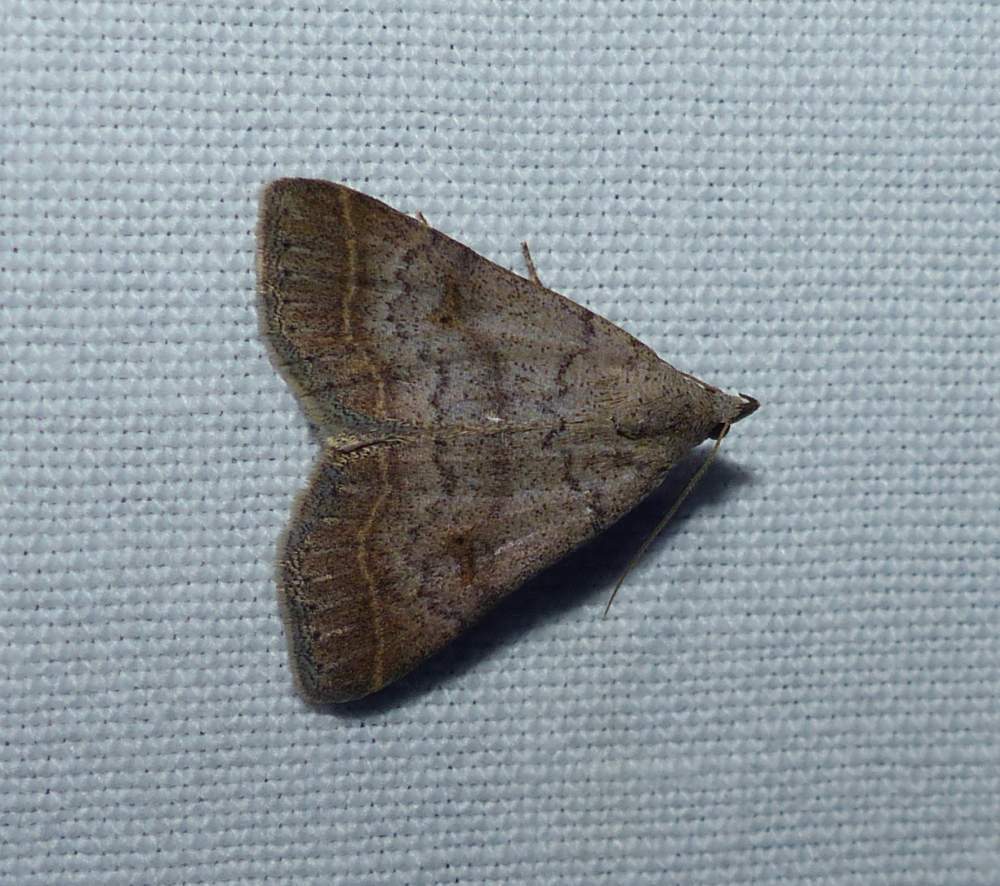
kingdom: Animalia
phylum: Arthropoda
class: Insecta
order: Lepidoptera
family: Erebidae
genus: Bleptina
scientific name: Bleptina caradrinalis
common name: Bent-winged owlet
